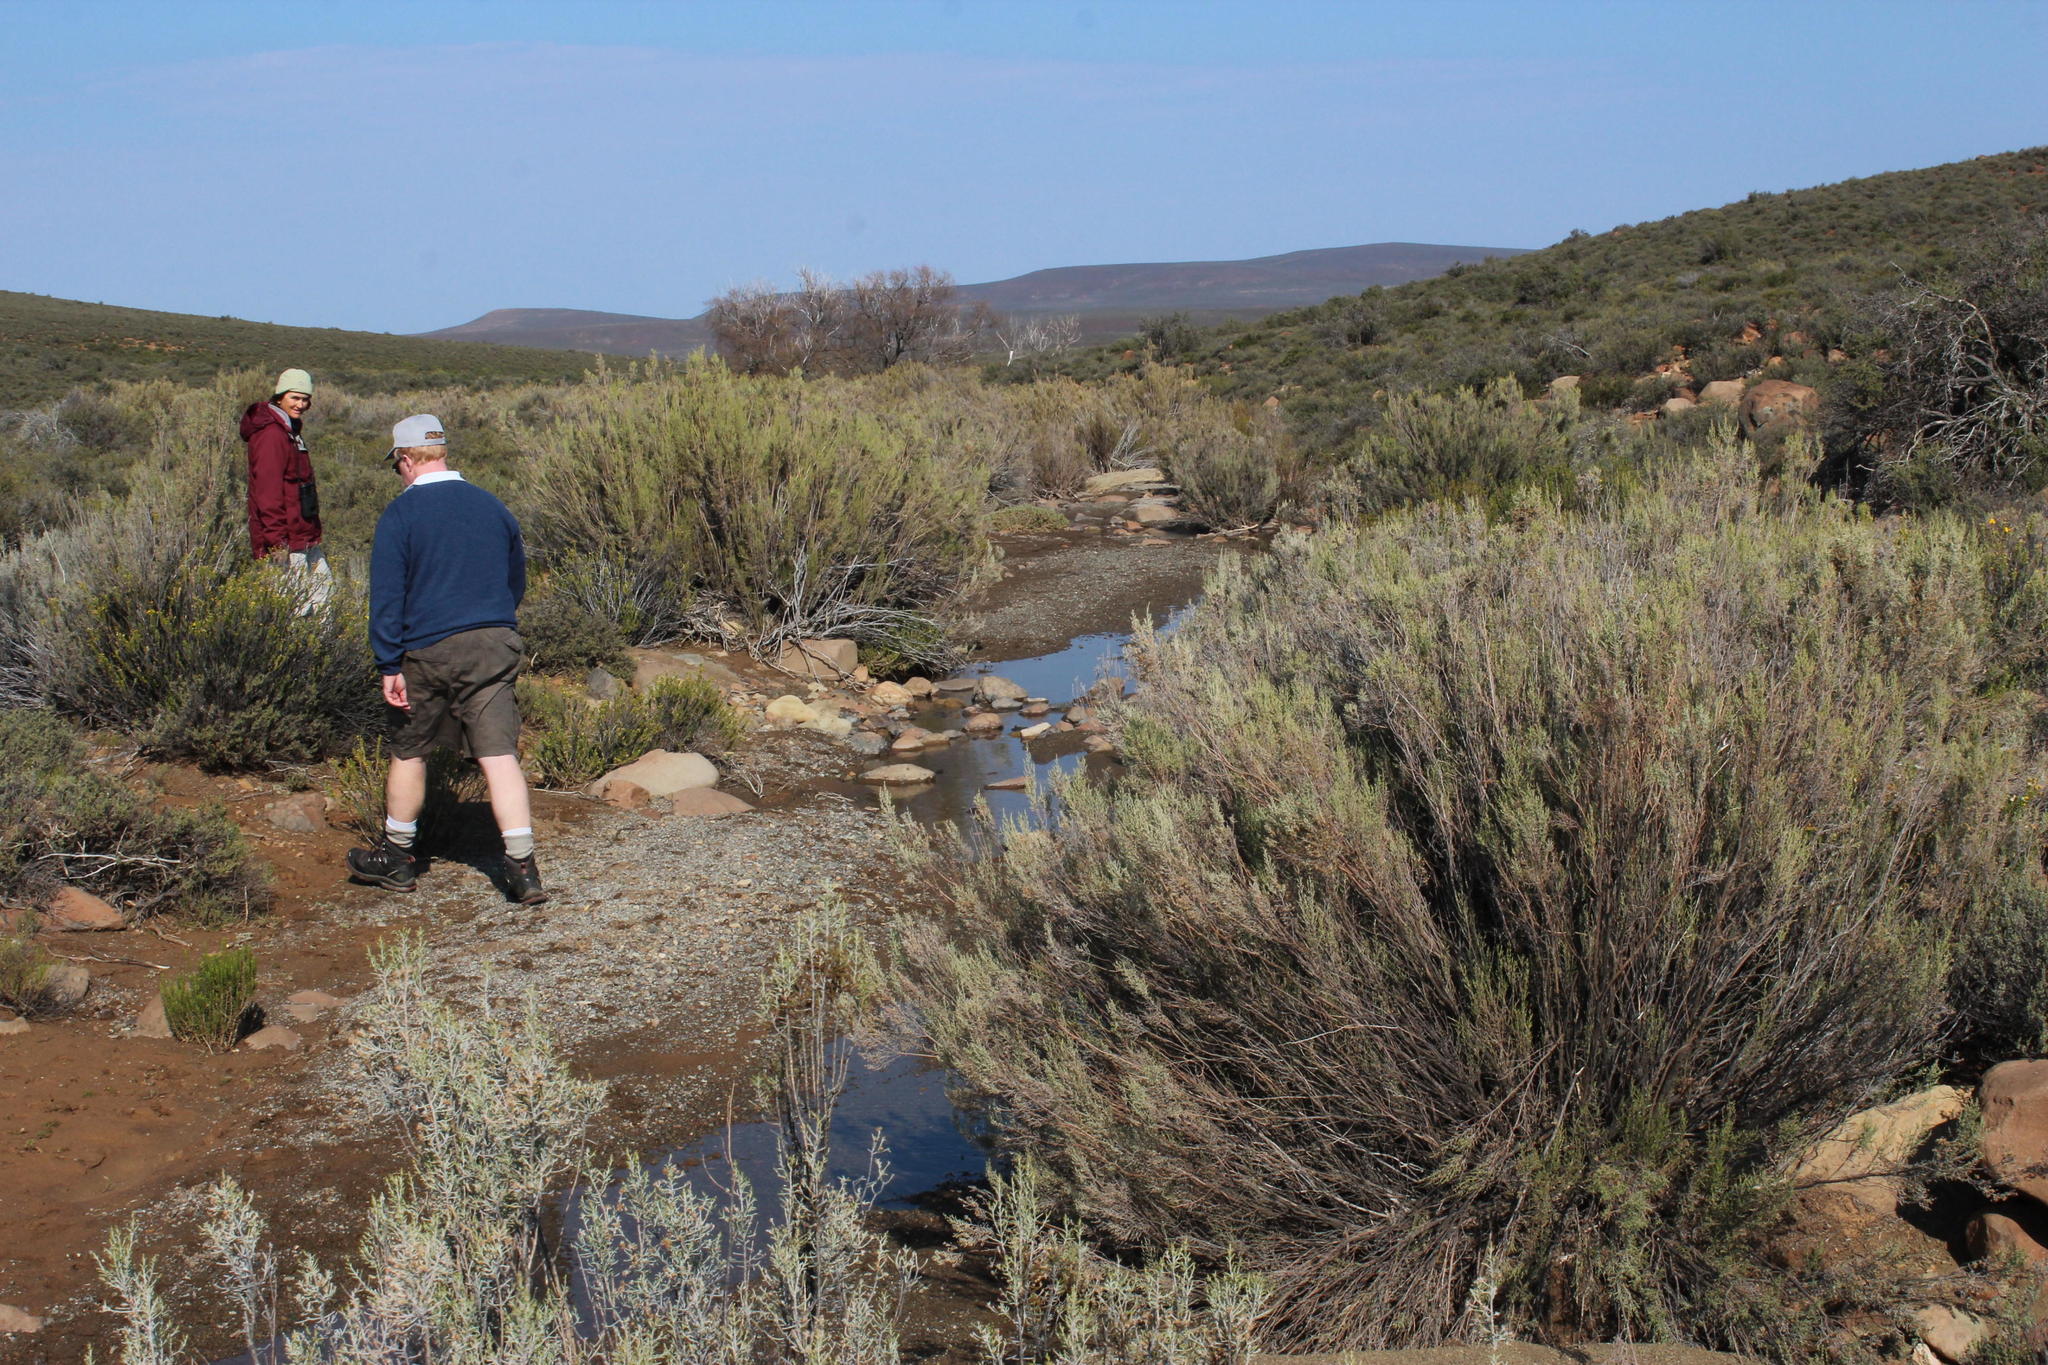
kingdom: Plantae
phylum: Tracheophyta
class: Magnoliopsida
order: Asterales
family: Asteraceae
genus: Dicerothamnus
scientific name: Dicerothamnus rhinocerotis
